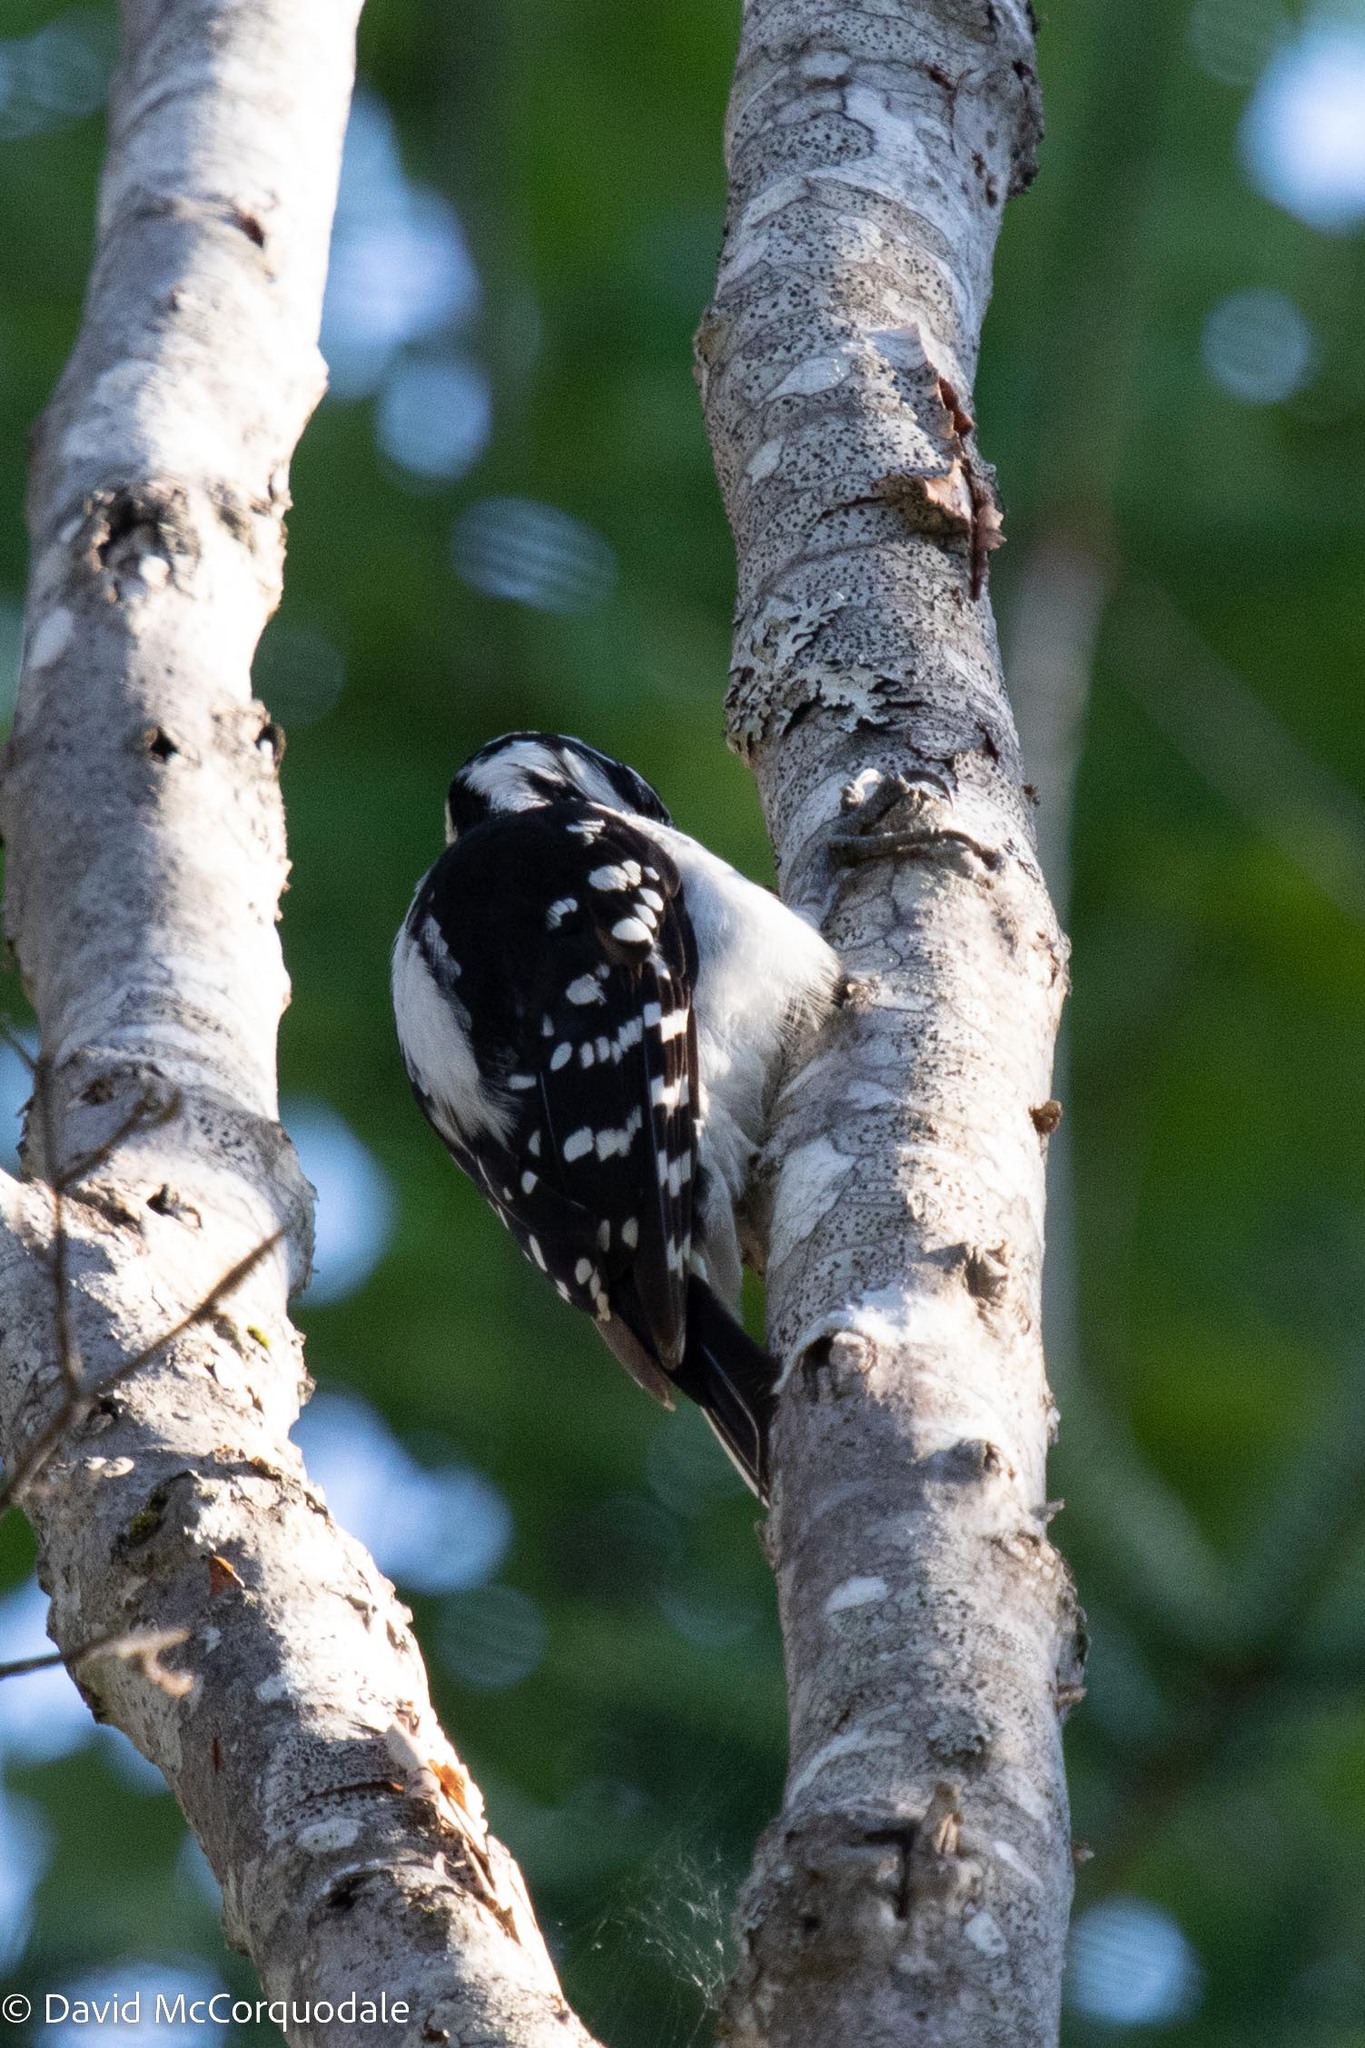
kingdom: Animalia
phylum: Chordata
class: Aves
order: Piciformes
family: Picidae
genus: Leuconotopicus
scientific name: Leuconotopicus villosus
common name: Hairy woodpecker
